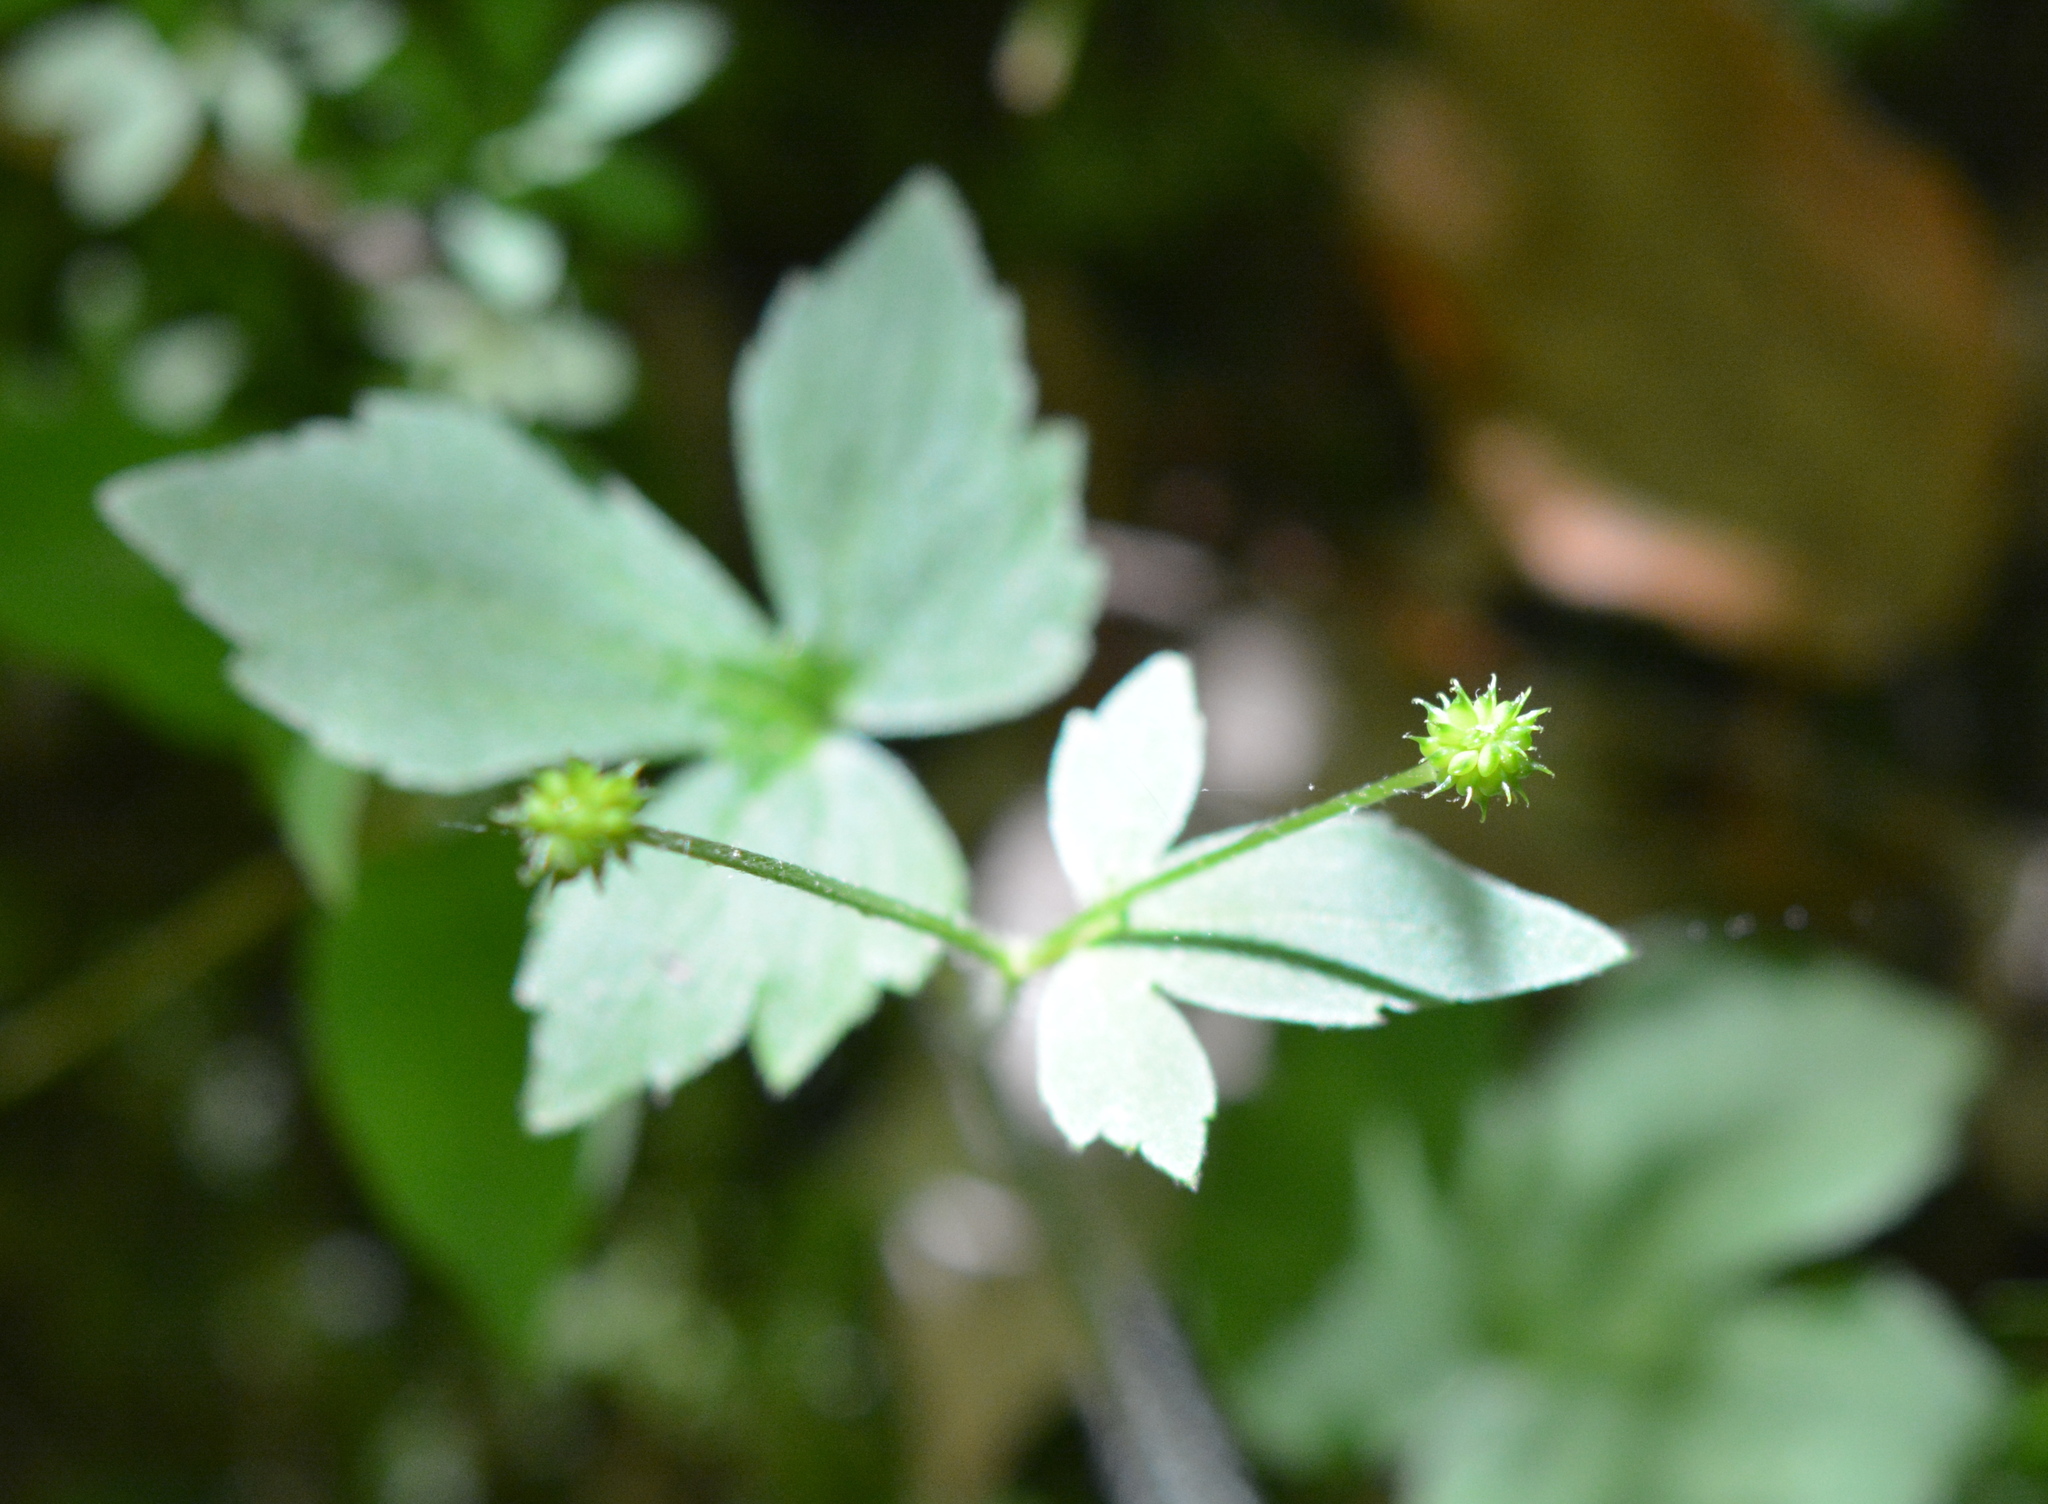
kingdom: Plantae
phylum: Tracheophyta
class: Magnoliopsida
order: Ranunculales
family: Ranunculaceae
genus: Ranunculus
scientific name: Ranunculus recurvatus
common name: Blisterwort
